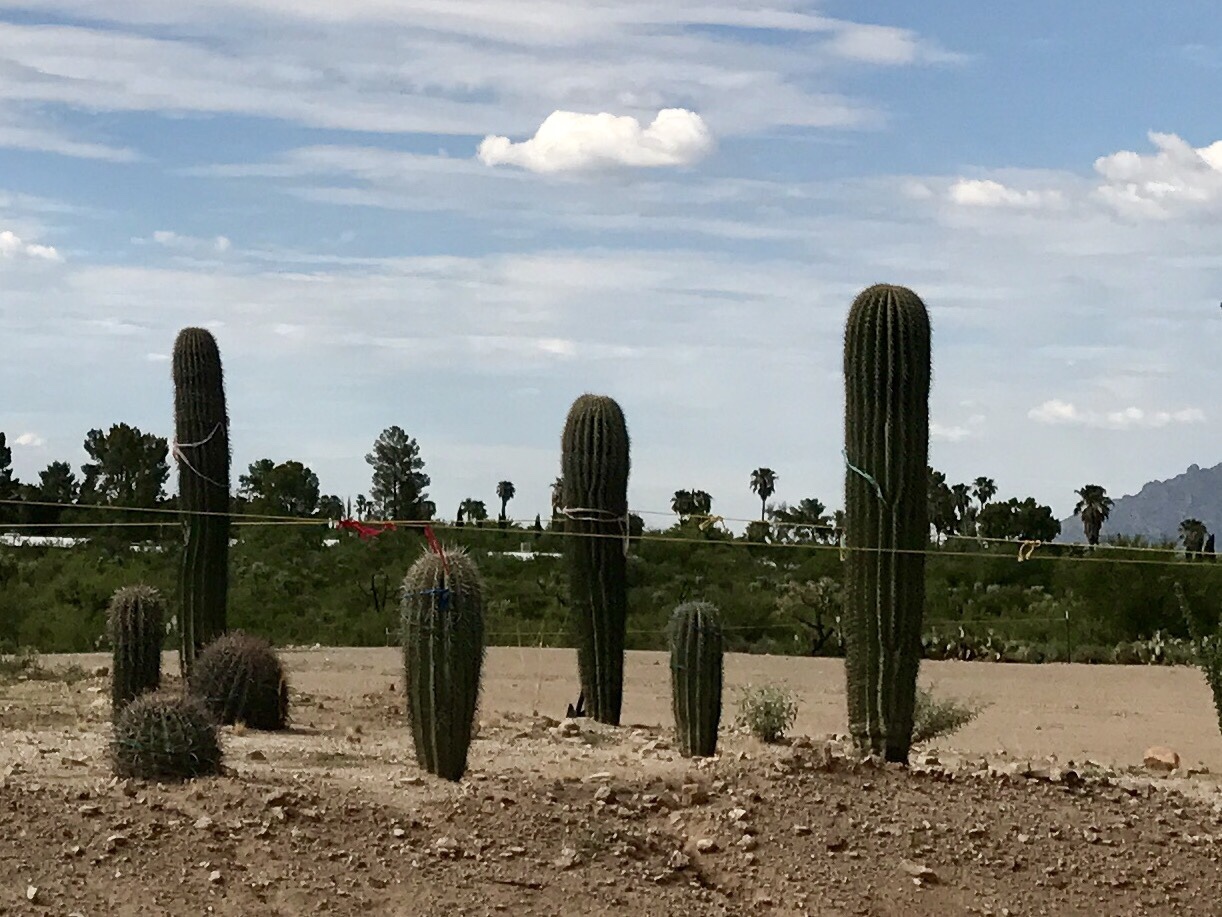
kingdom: Plantae
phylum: Tracheophyta
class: Magnoliopsida
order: Caryophyllales
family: Cactaceae
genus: Carnegiea
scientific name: Carnegiea gigantea
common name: Saguaro
